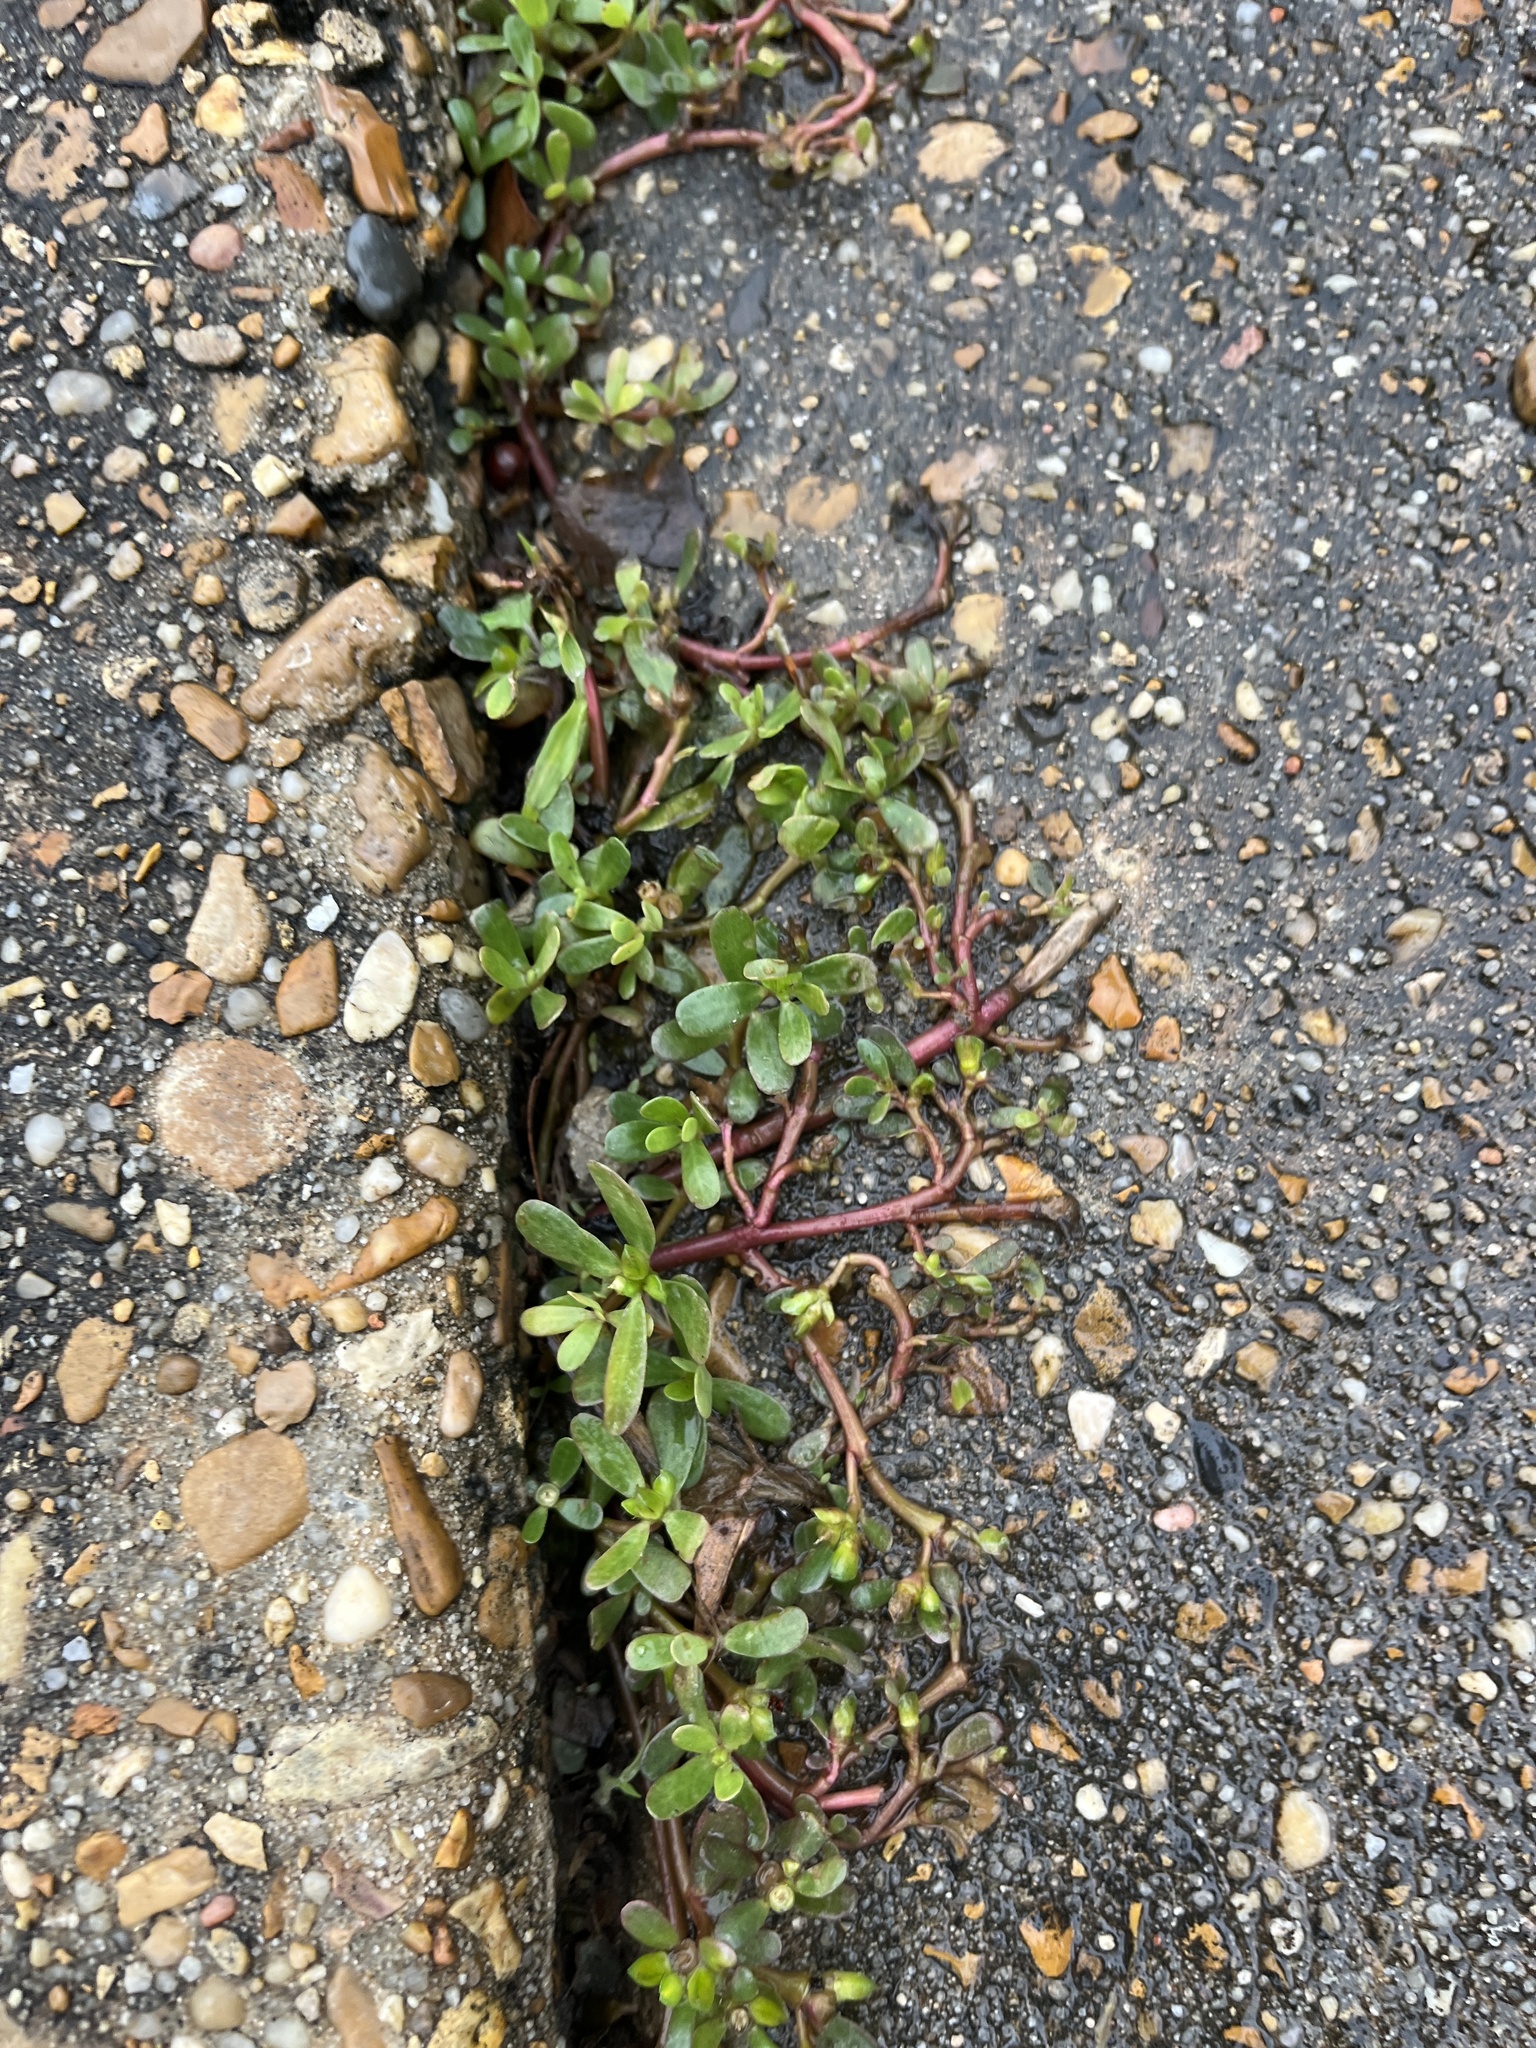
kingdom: Plantae
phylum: Tracheophyta
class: Magnoliopsida
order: Caryophyllales
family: Portulacaceae
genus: Portulaca
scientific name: Portulaca oleracea
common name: Common purslane
